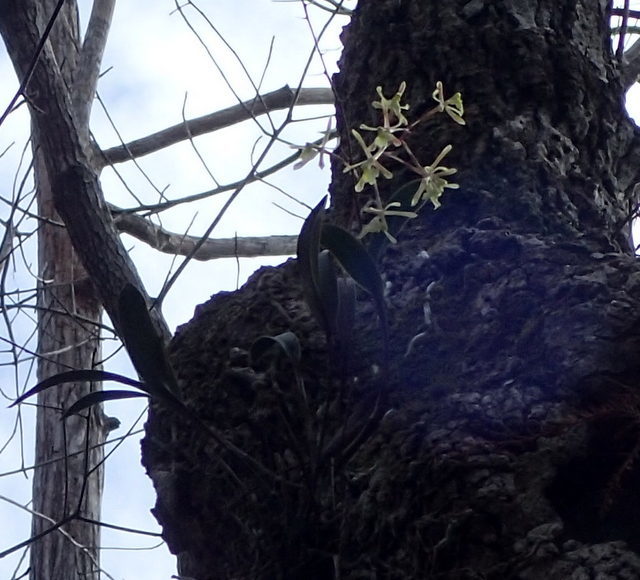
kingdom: Plantae
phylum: Tracheophyta
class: Liliopsida
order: Asparagales
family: Orchidaceae
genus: Epidendrum
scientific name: Epidendrum conopseum
